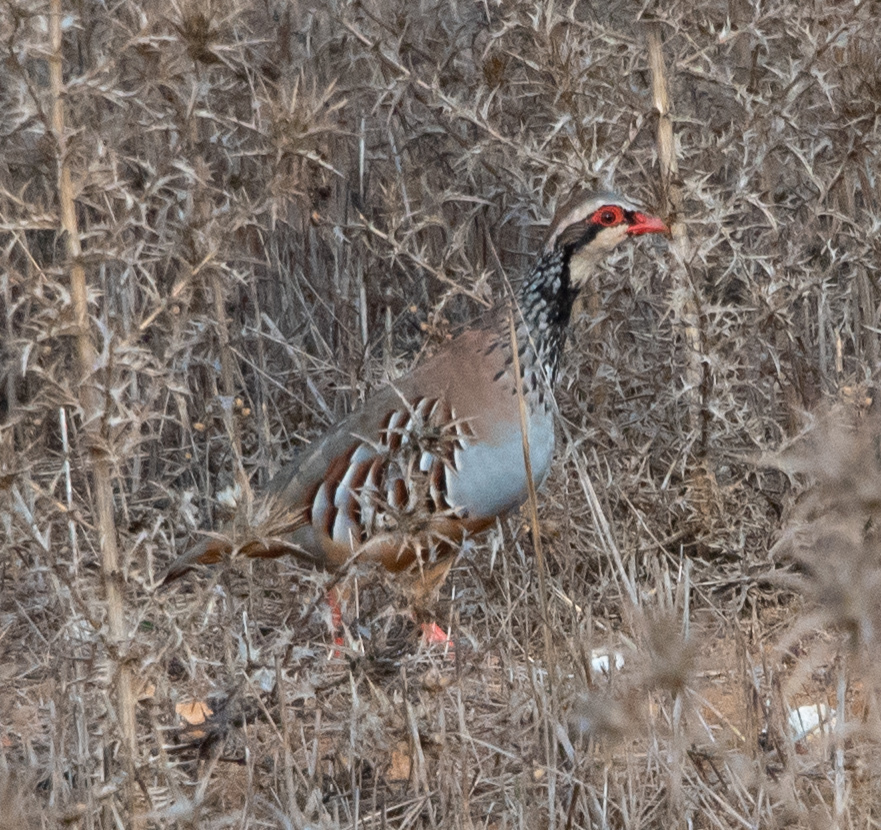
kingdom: Animalia
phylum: Chordata
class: Aves
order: Galliformes
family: Phasianidae
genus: Alectoris
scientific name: Alectoris rufa
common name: Red-legged partridge
